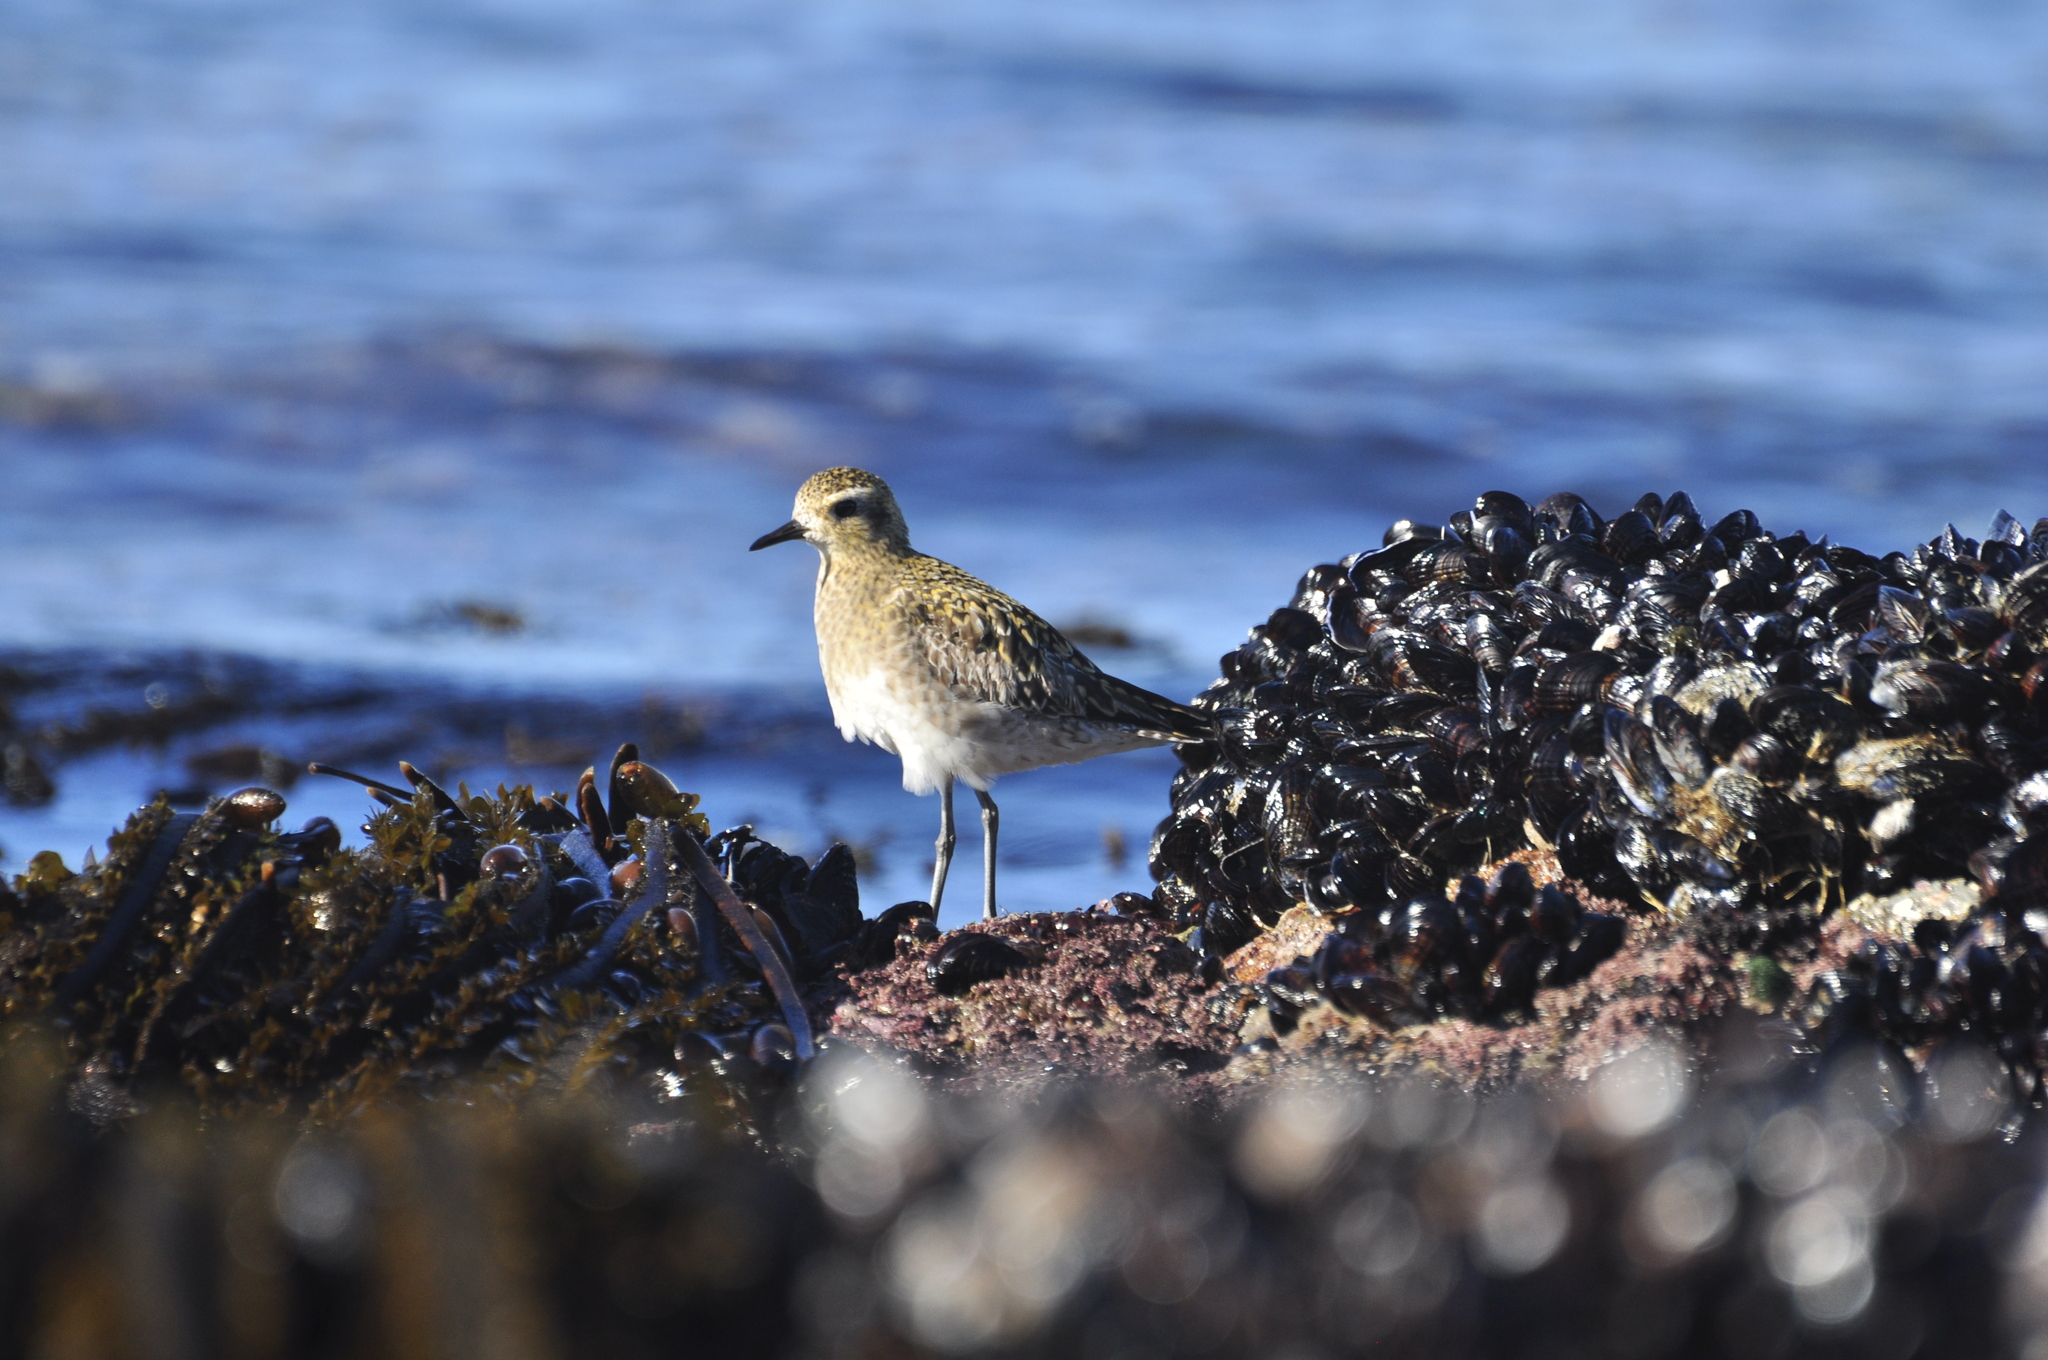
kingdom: Animalia
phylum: Chordata
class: Aves
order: Charadriiformes
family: Charadriidae
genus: Pluvialis
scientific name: Pluvialis fulva
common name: Pacific golden plover
